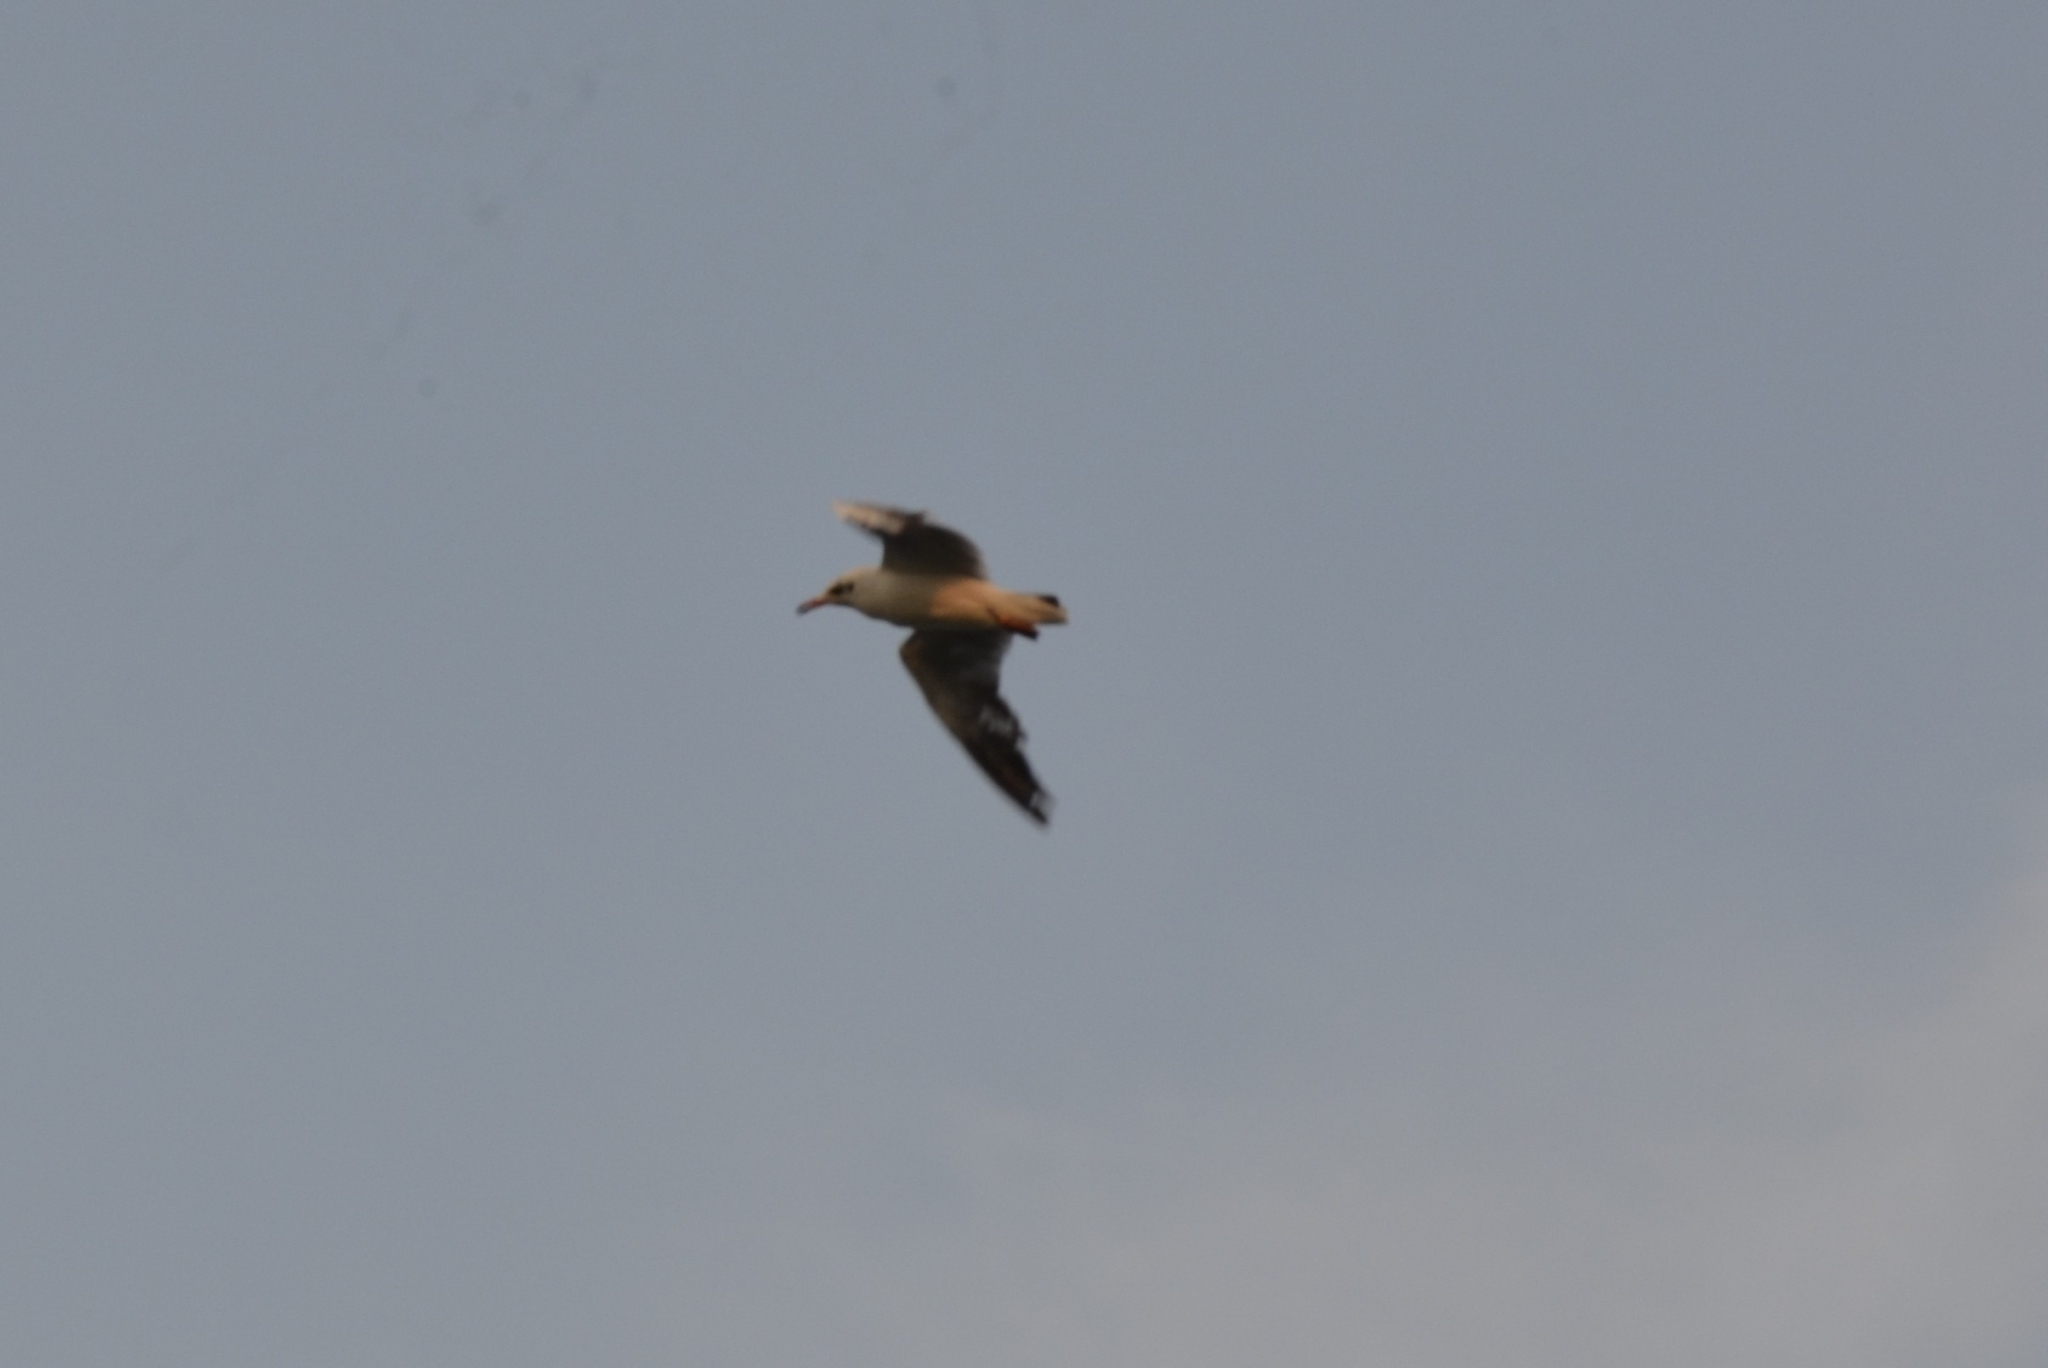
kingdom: Animalia
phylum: Chordata
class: Aves
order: Charadriiformes
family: Laridae
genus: Chroicocephalus
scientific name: Chroicocephalus brunnicephalus
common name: Brown-headed gull
